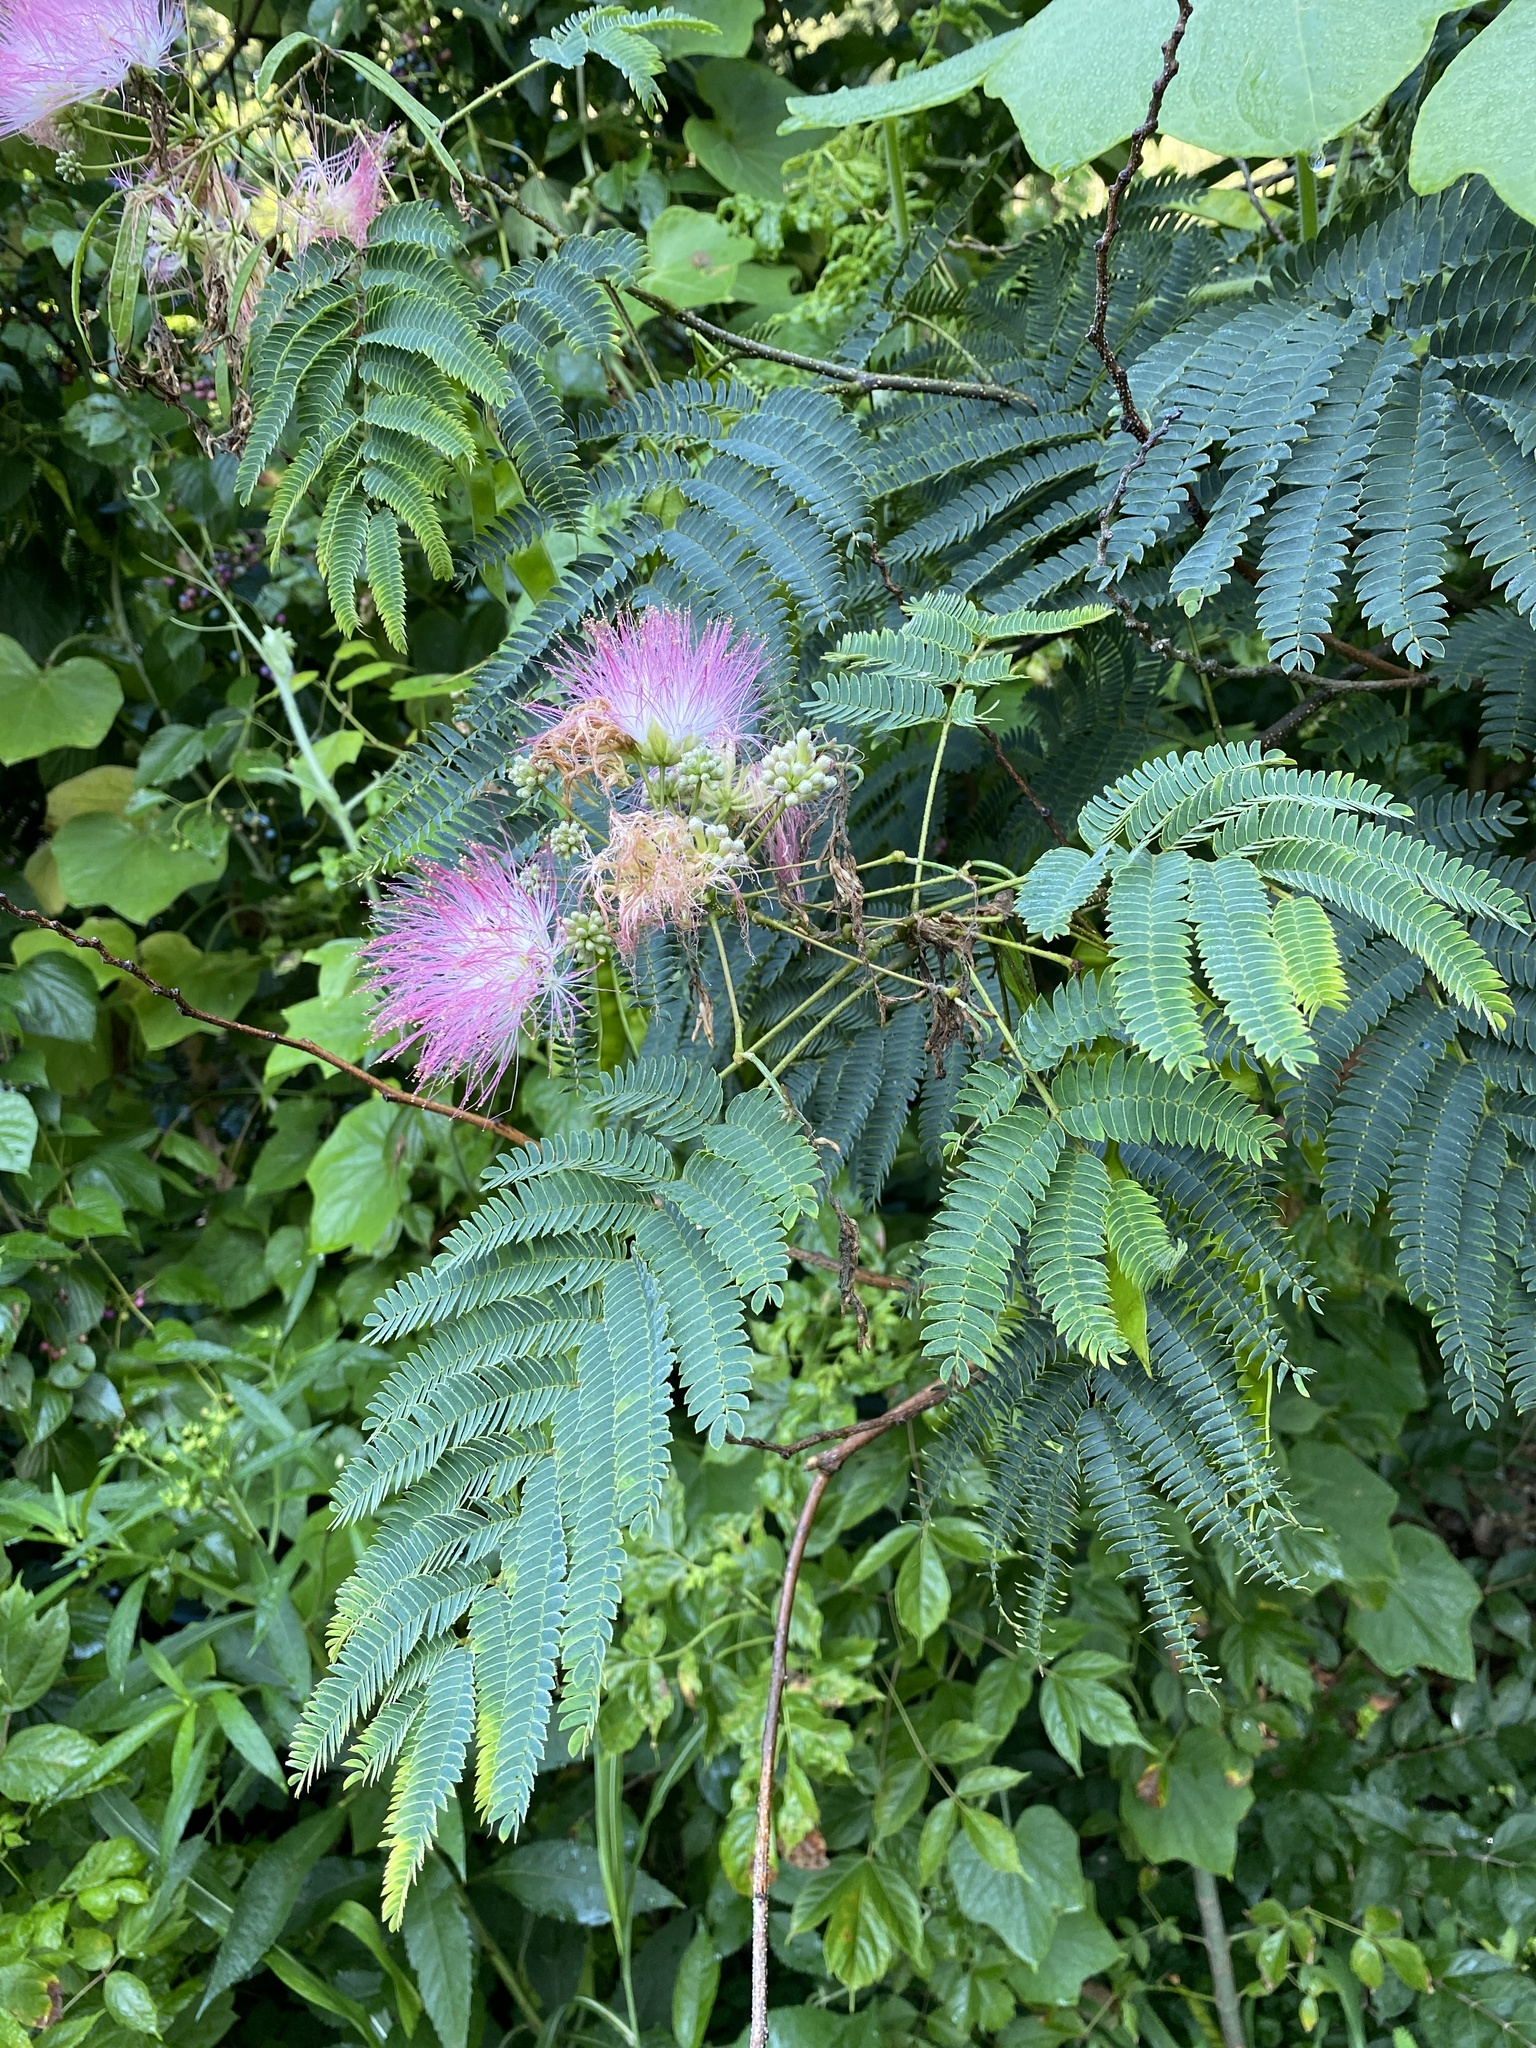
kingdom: Plantae
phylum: Tracheophyta
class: Magnoliopsida
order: Fabales
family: Fabaceae
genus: Albizia
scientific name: Albizia julibrissin
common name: Silktree
